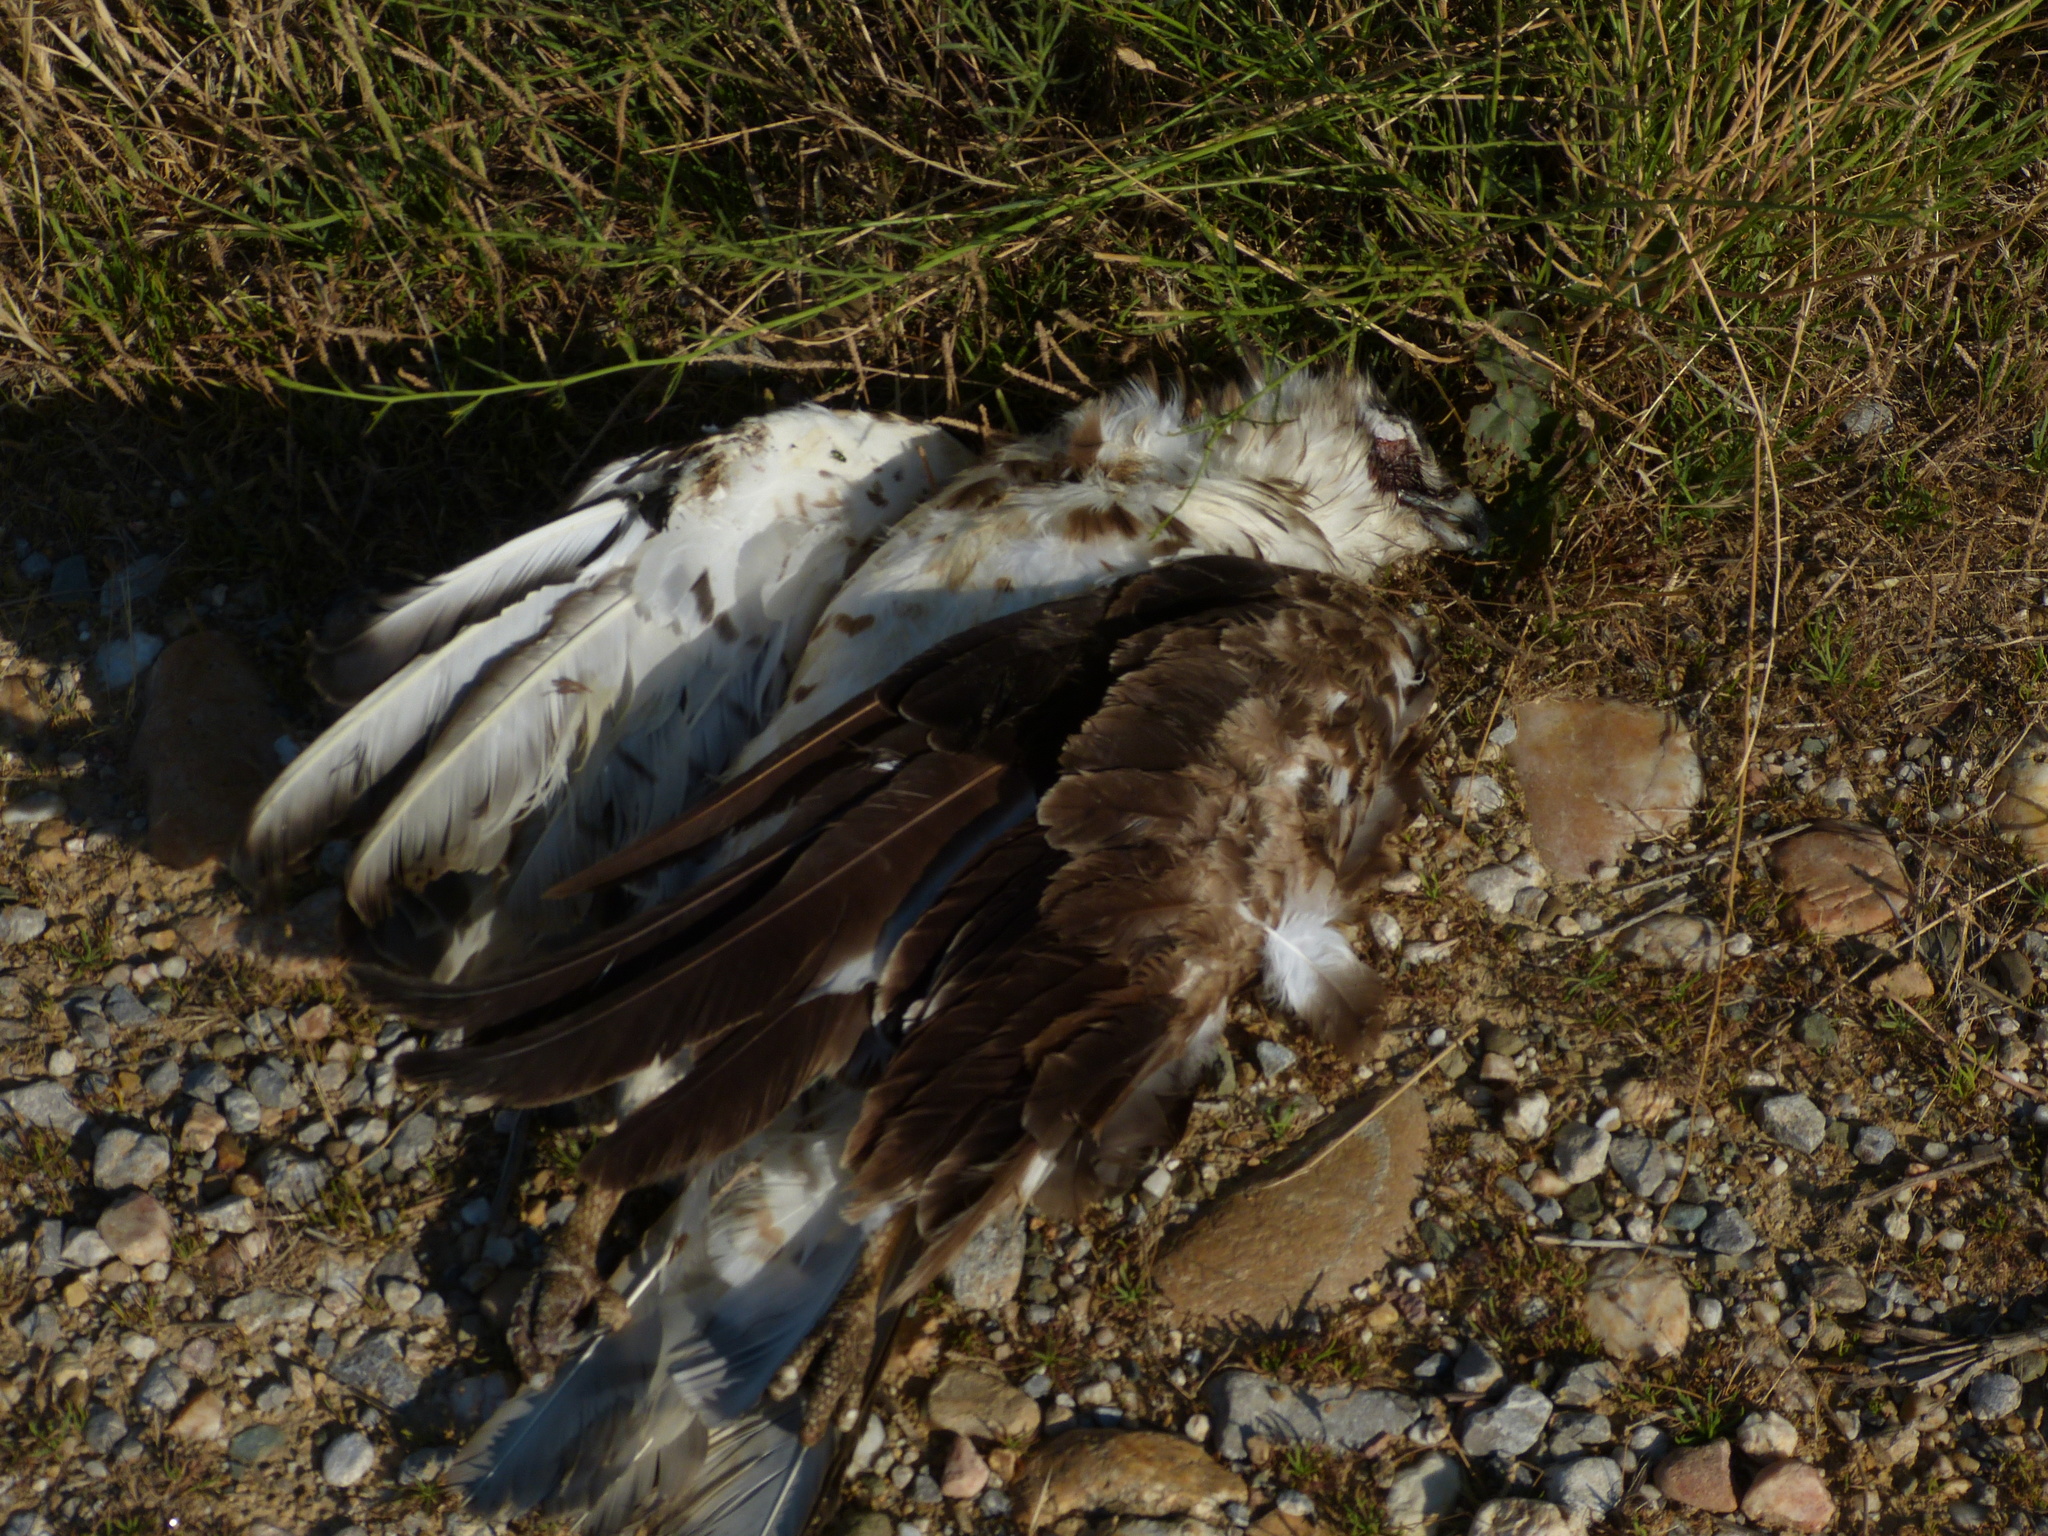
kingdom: Animalia
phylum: Chordata
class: Aves
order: Accipitriformes
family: Accipitridae
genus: Circaetus
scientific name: Circaetus gallicus
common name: Short-toed snake eagle
